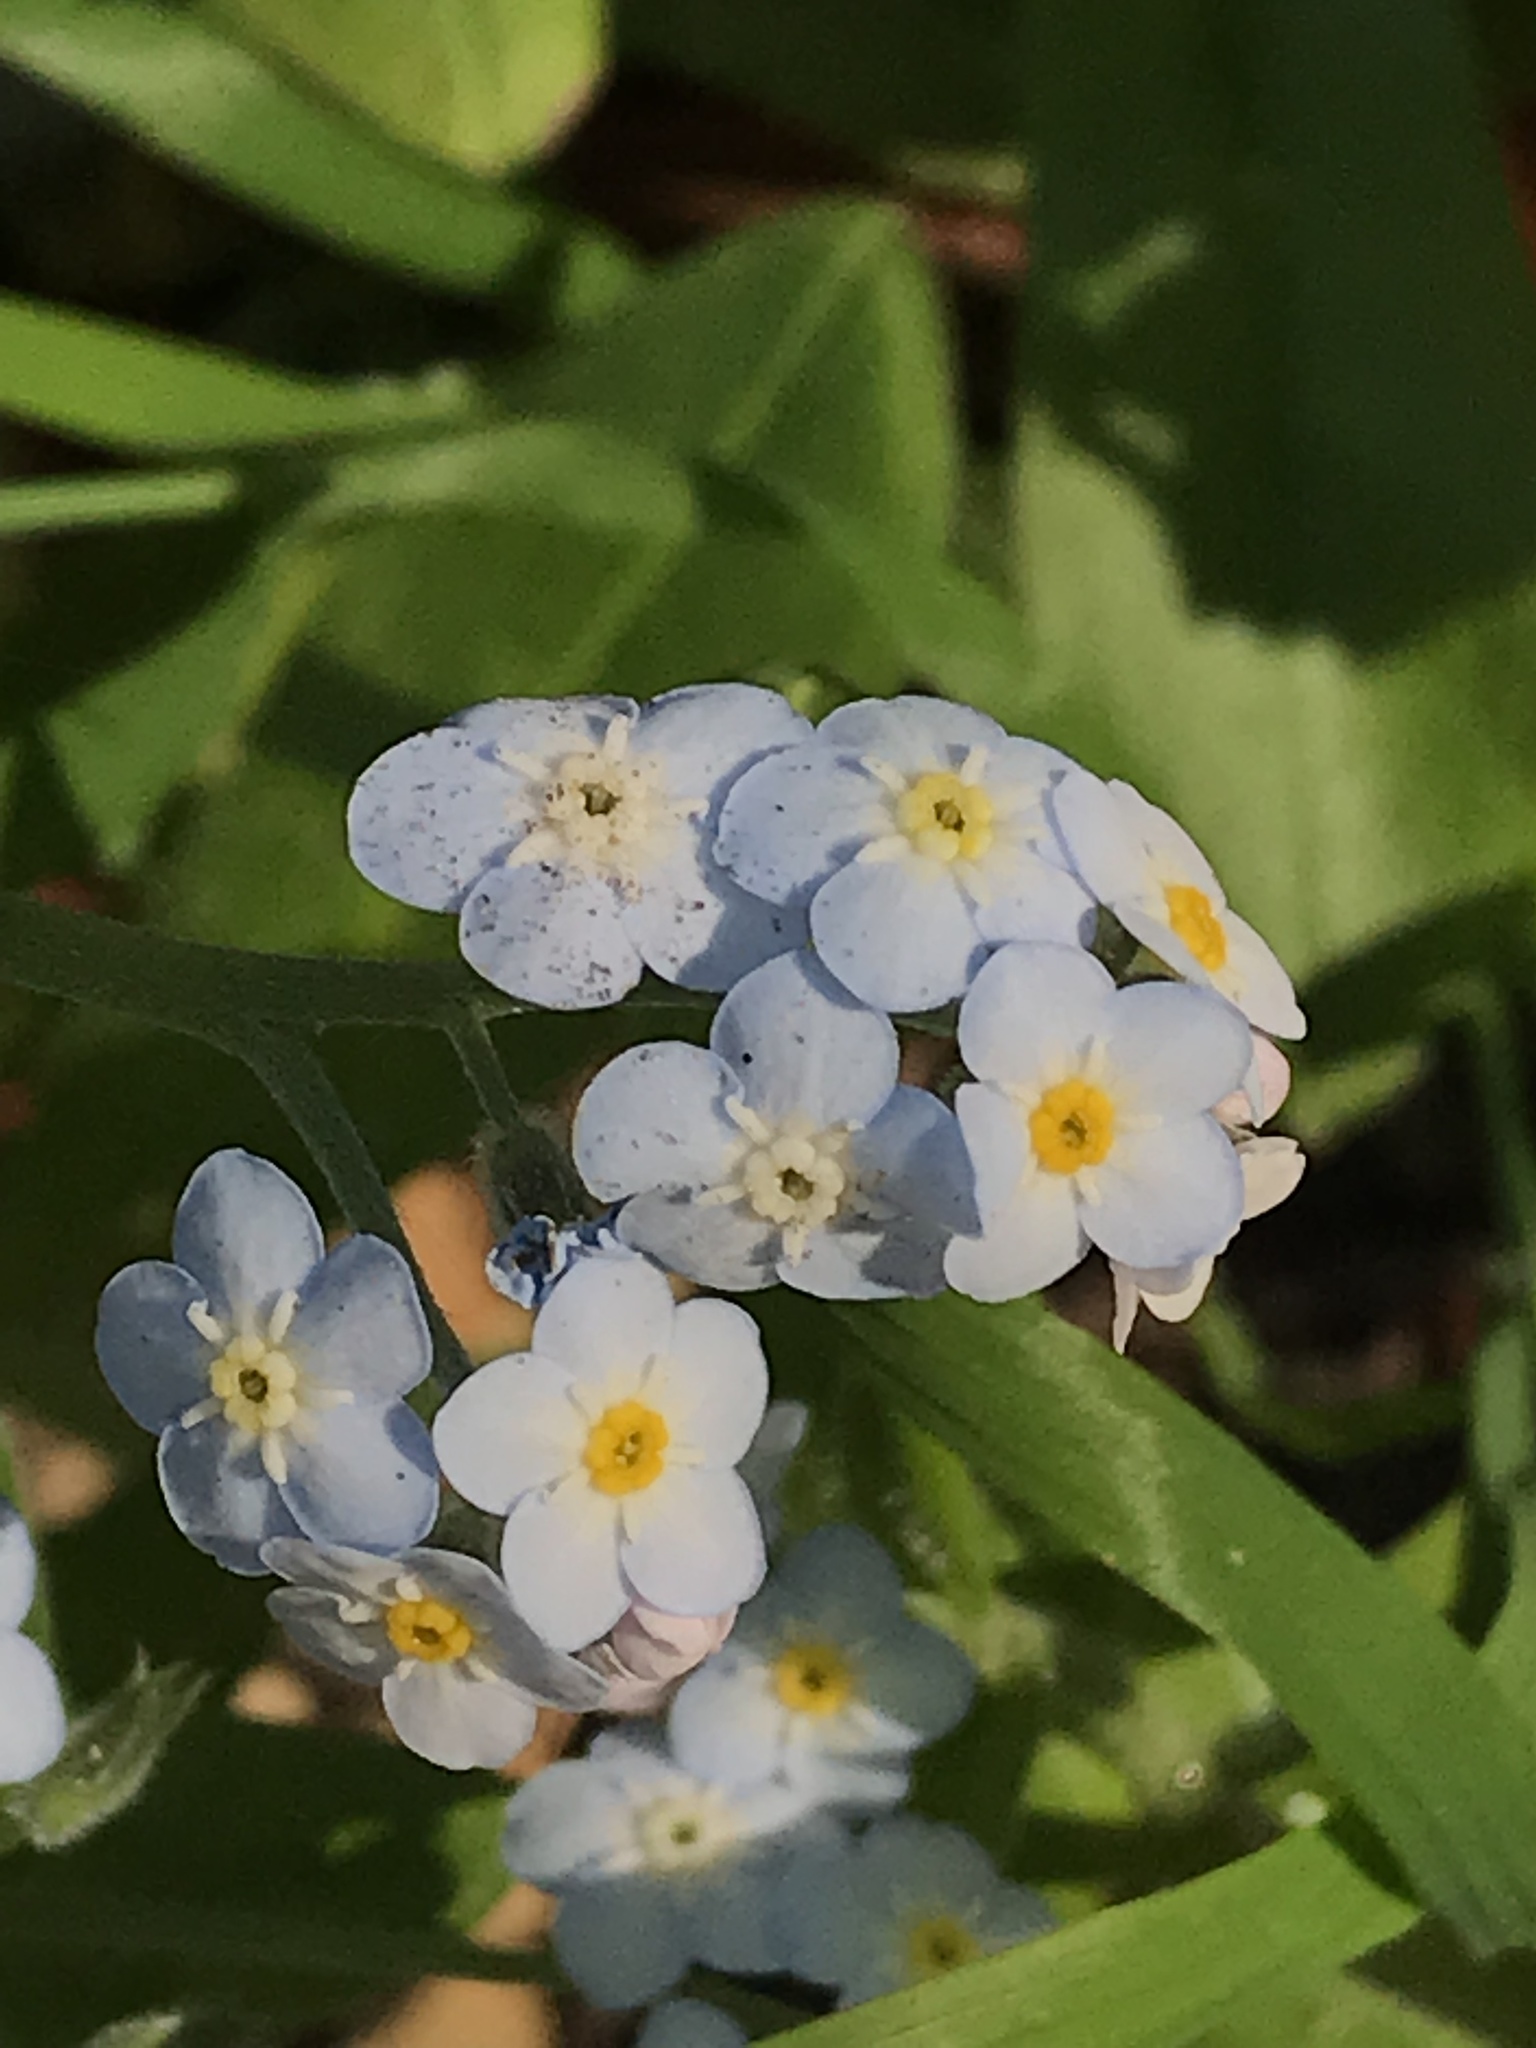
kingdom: Plantae
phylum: Tracheophyta
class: Magnoliopsida
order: Boraginales
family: Boraginaceae
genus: Myosotis
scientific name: Myosotis latifolia
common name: Broadleaf forget-me-not
